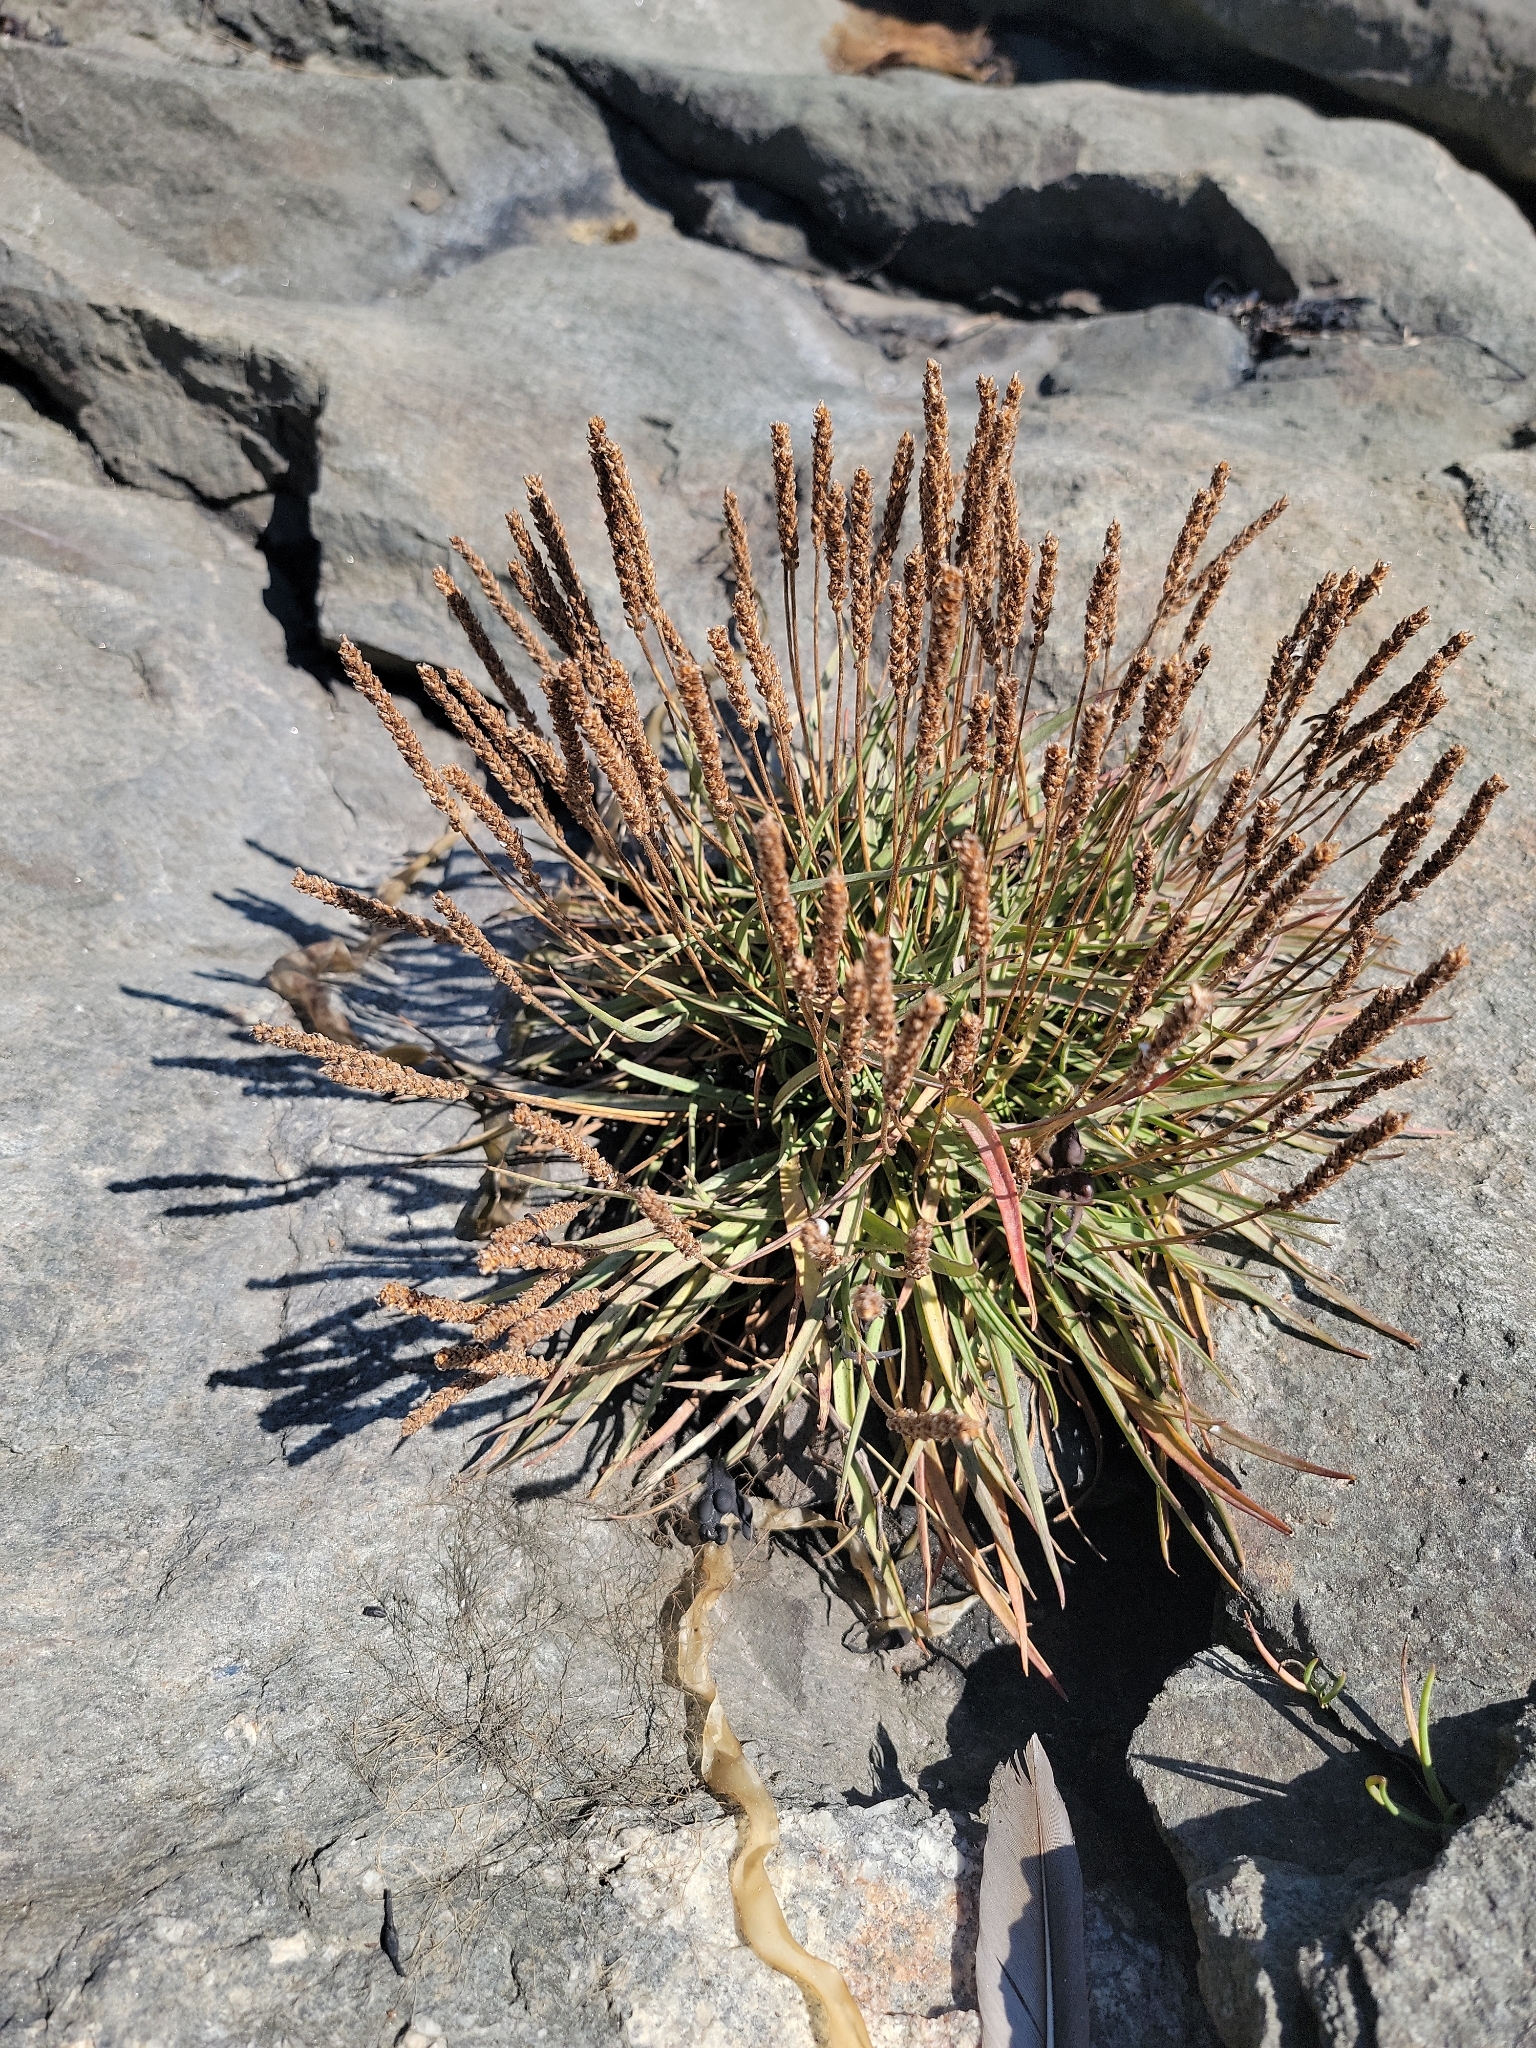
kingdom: Plantae
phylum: Tracheophyta
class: Magnoliopsida
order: Lamiales
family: Plantaginaceae
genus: Plantago
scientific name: Plantago maritima
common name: Sea plantain
